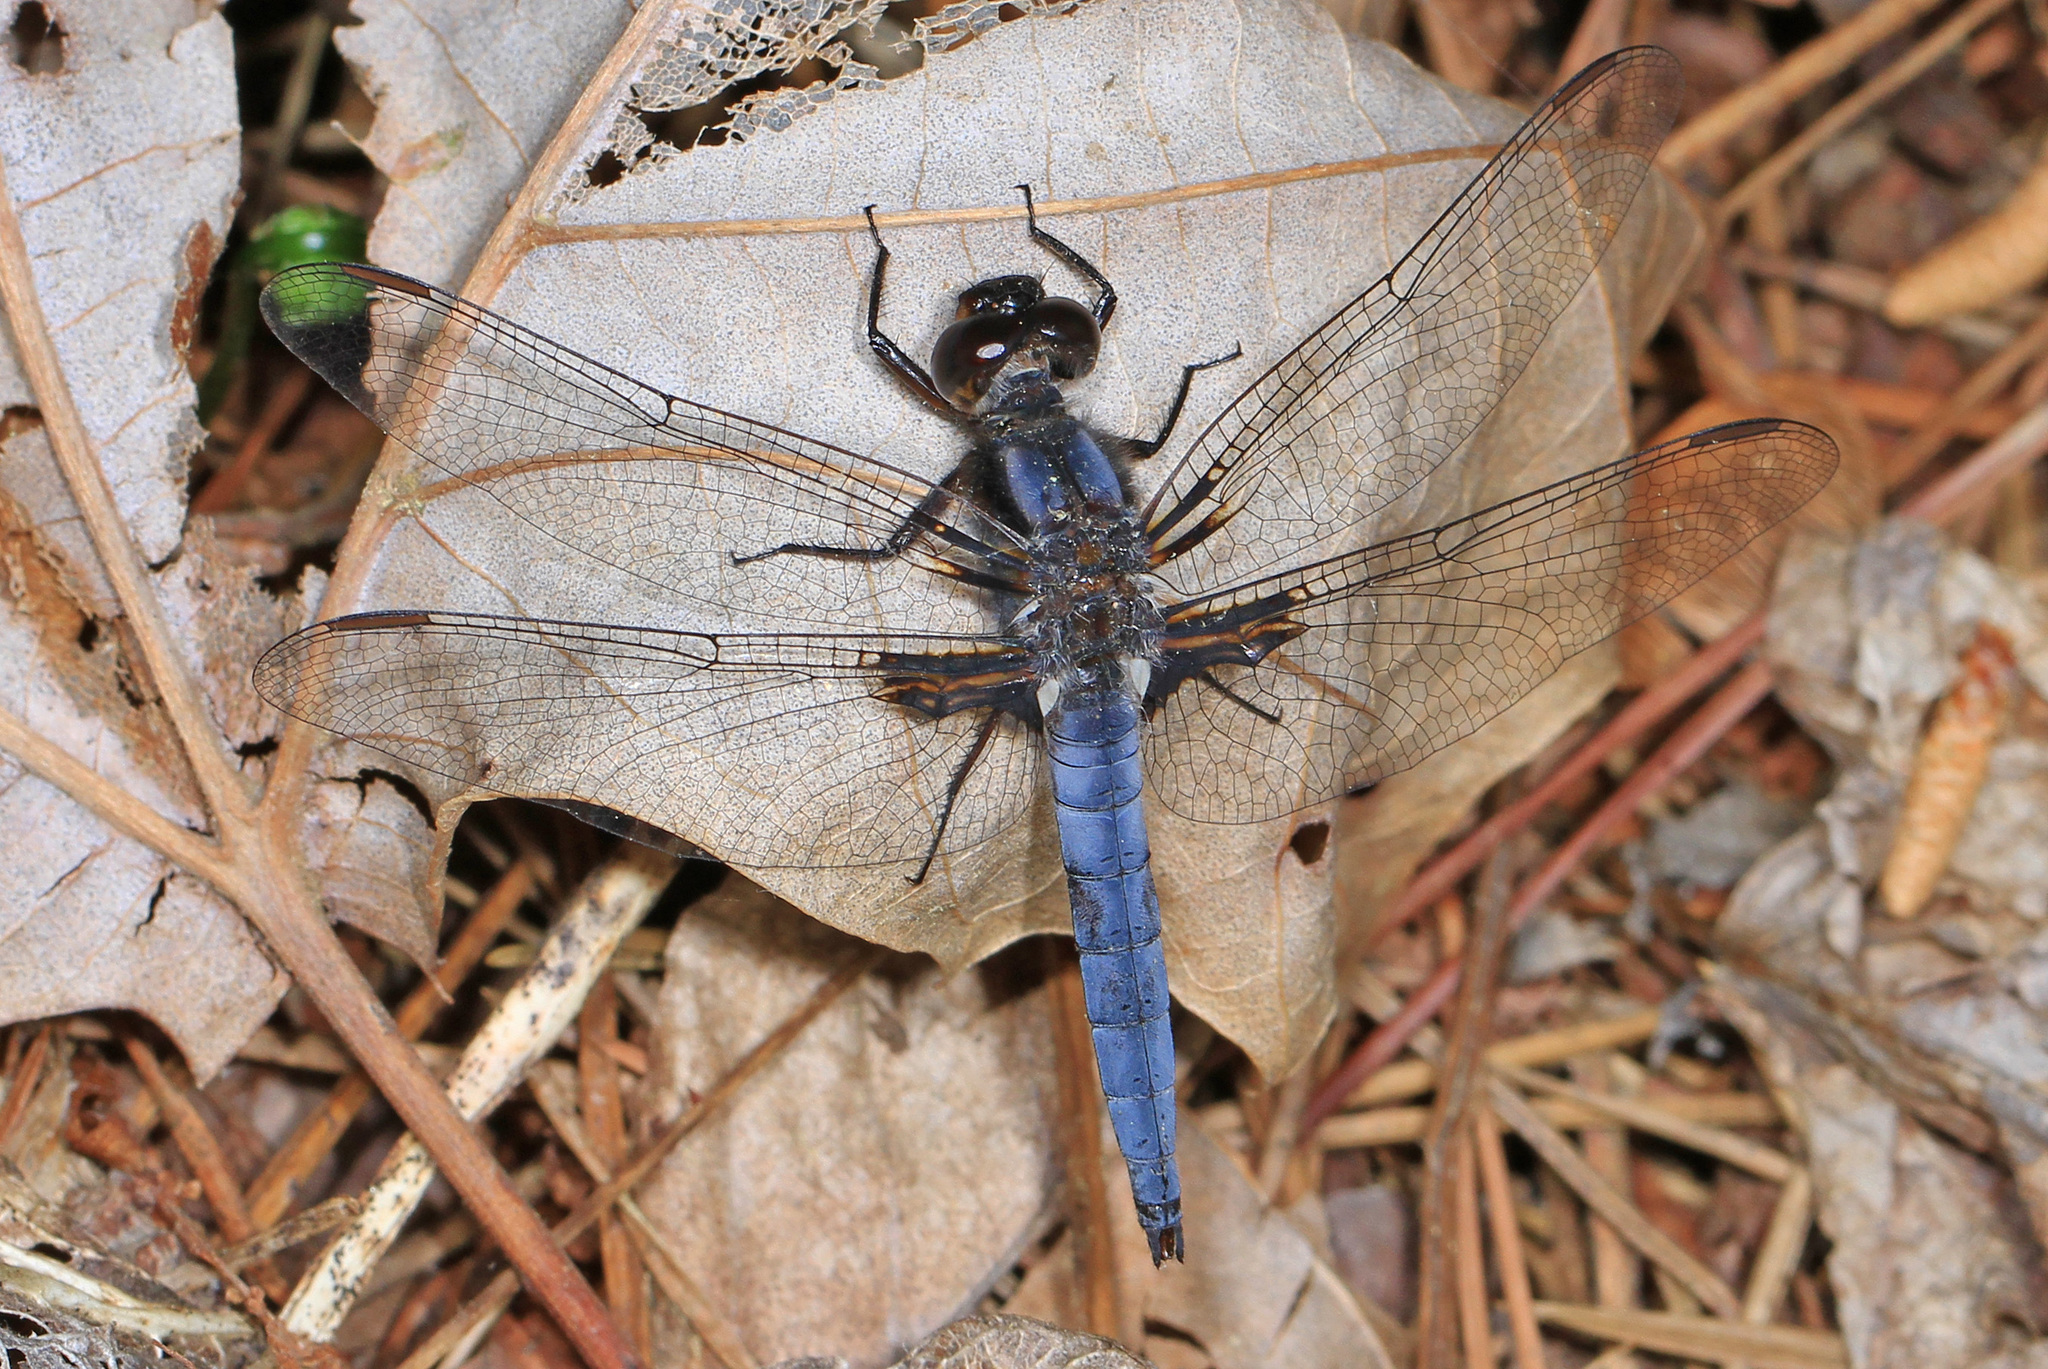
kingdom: Animalia
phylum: Arthropoda
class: Insecta
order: Odonata
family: Libellulidae
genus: Ladona
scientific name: Ladona deplanata
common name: Blue corporal
